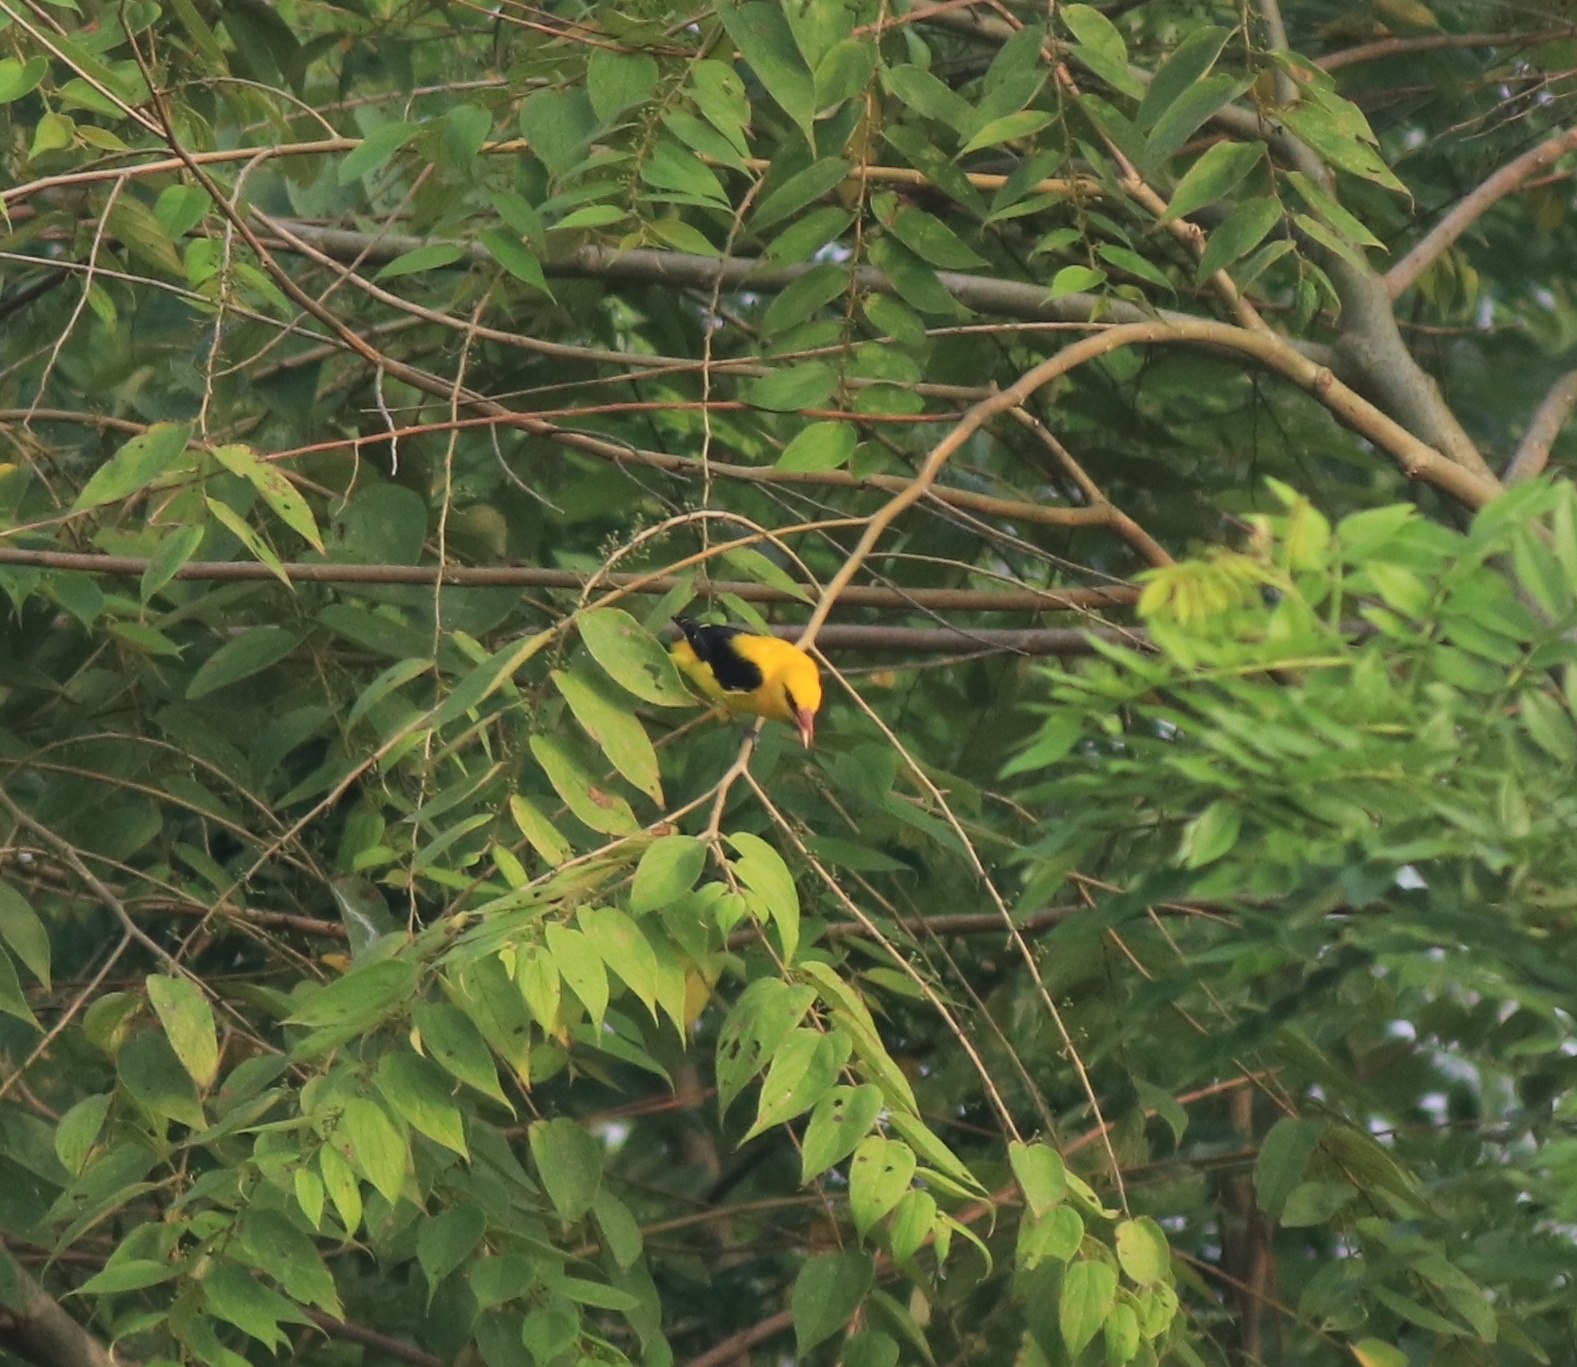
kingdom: Animalia
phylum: Chordata
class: Aves
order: Passeriformes
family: Oriolidae
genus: Oriolus
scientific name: Oriolus kundoo
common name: Indian golden oriole
